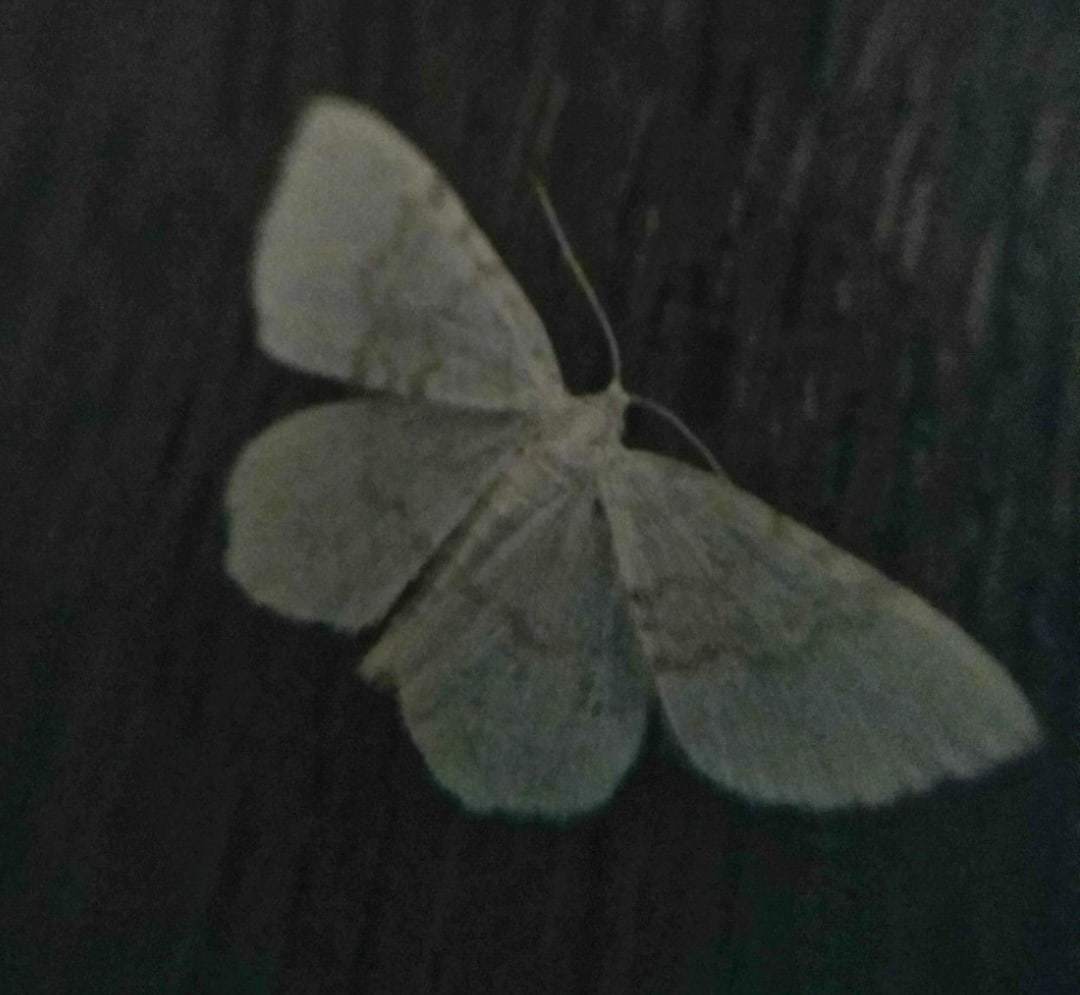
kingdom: Animalia
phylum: Arthropoda
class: Insecta
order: Lepidoptera
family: Geometridae
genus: Asthena
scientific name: Asthena albulata
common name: Small white wave
